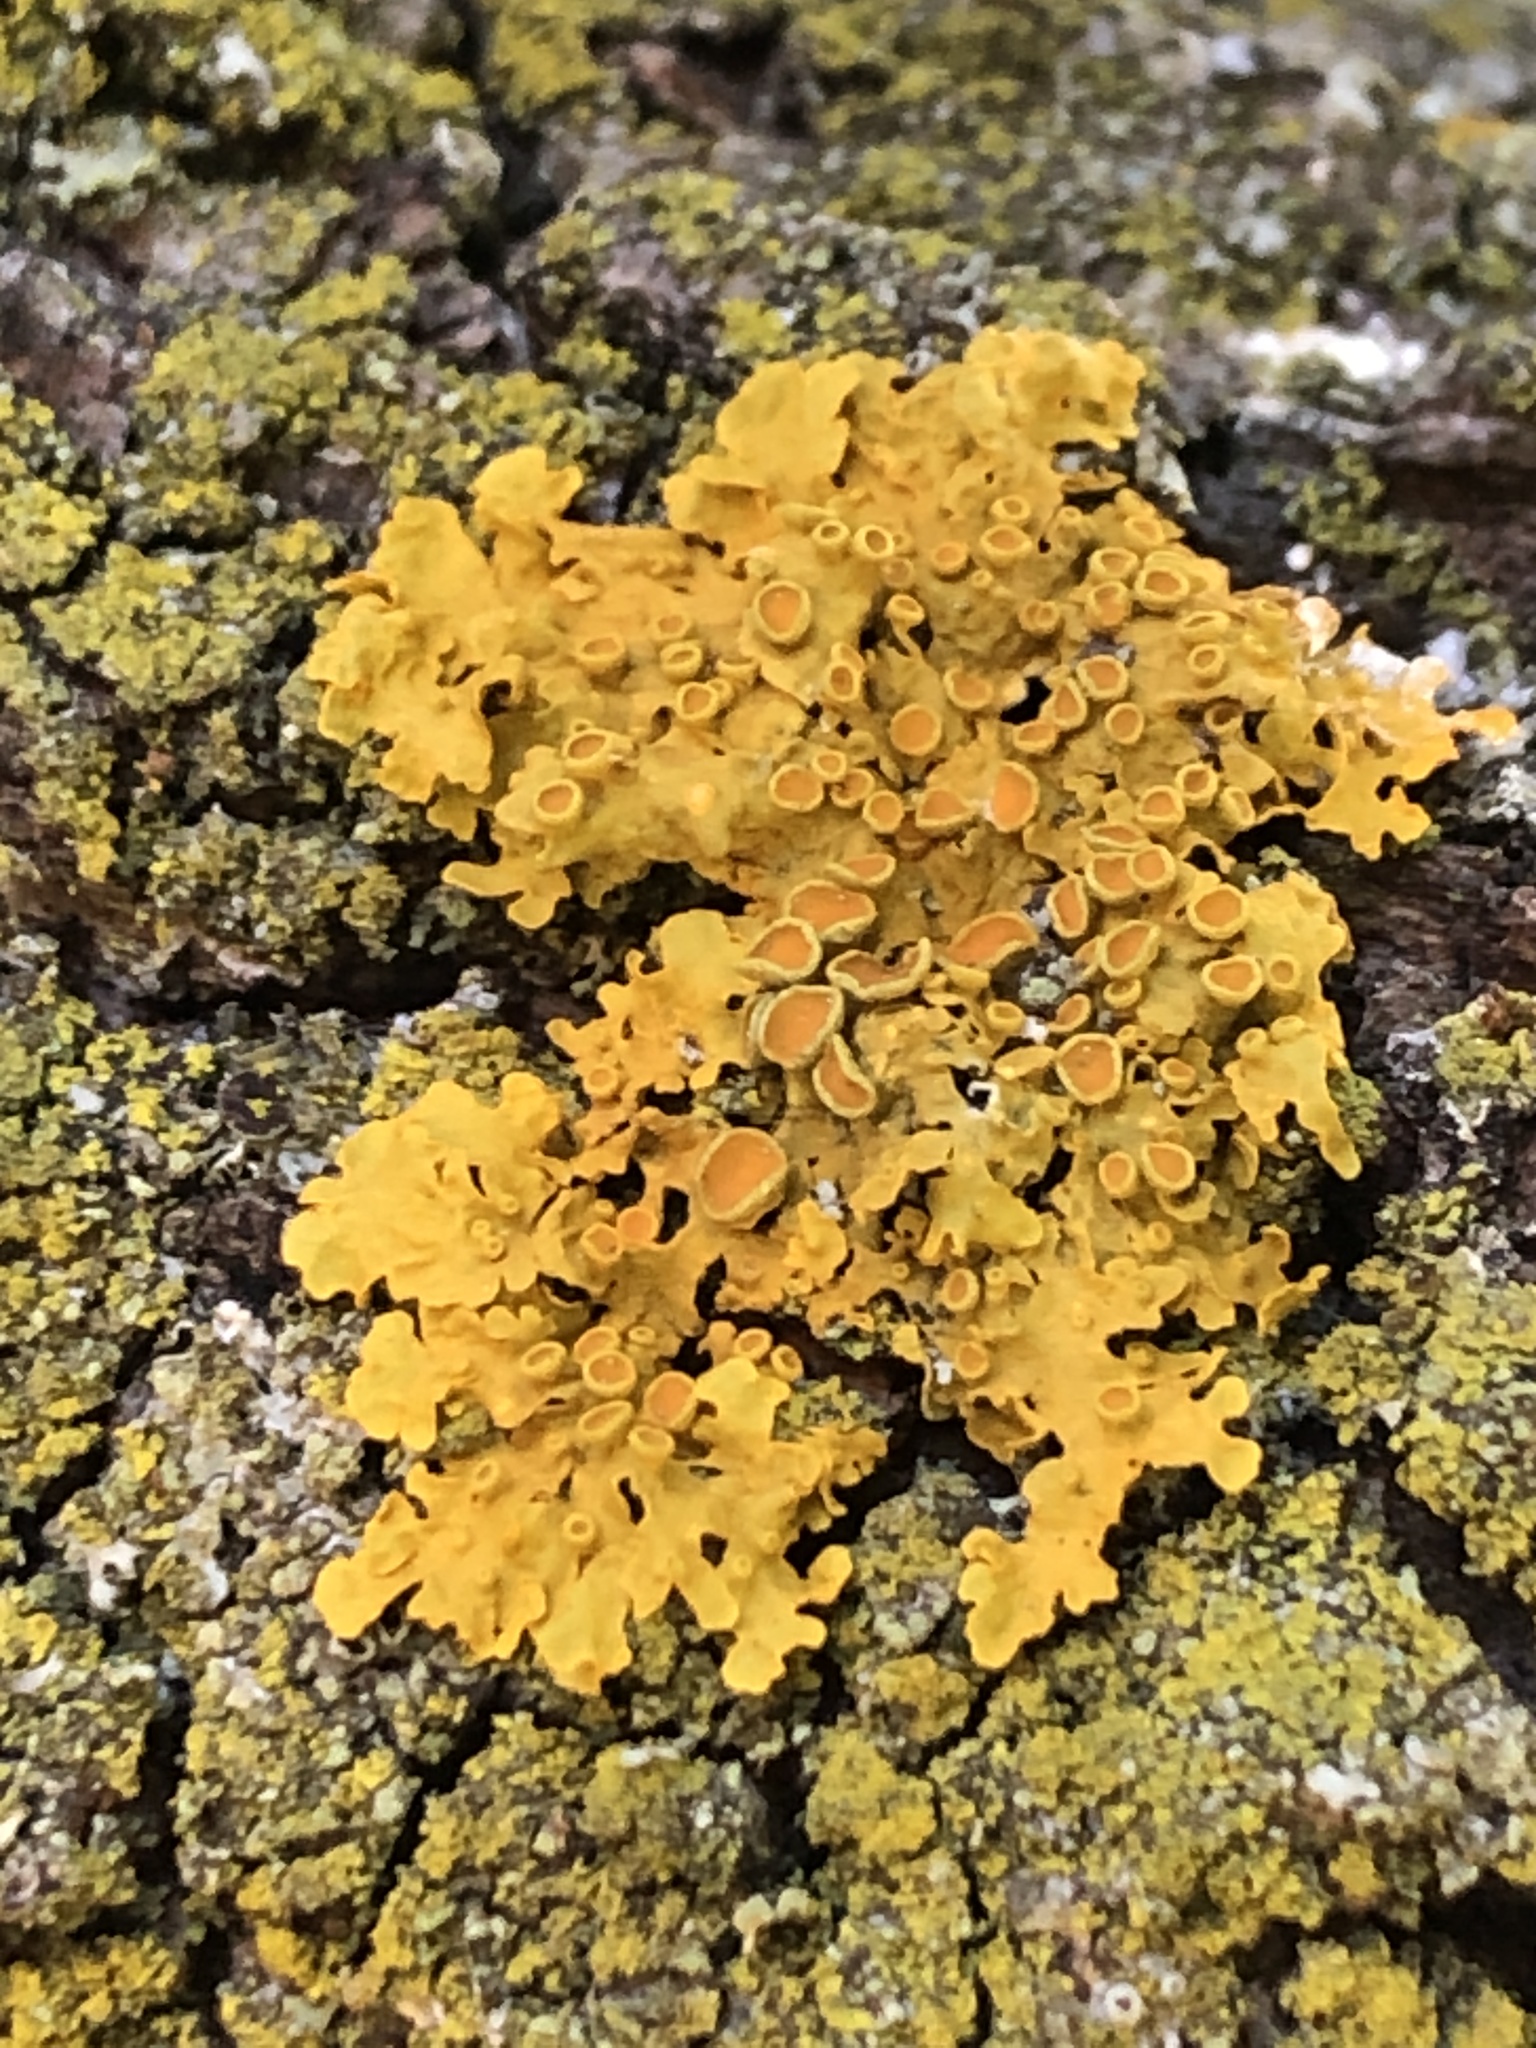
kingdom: Fungi
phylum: Ascomycota
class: Lecanoromycetes
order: Teloschistales
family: Teloschistaceae
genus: Xanthoria
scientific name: Xanthoria parietina
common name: Common orange lichen
